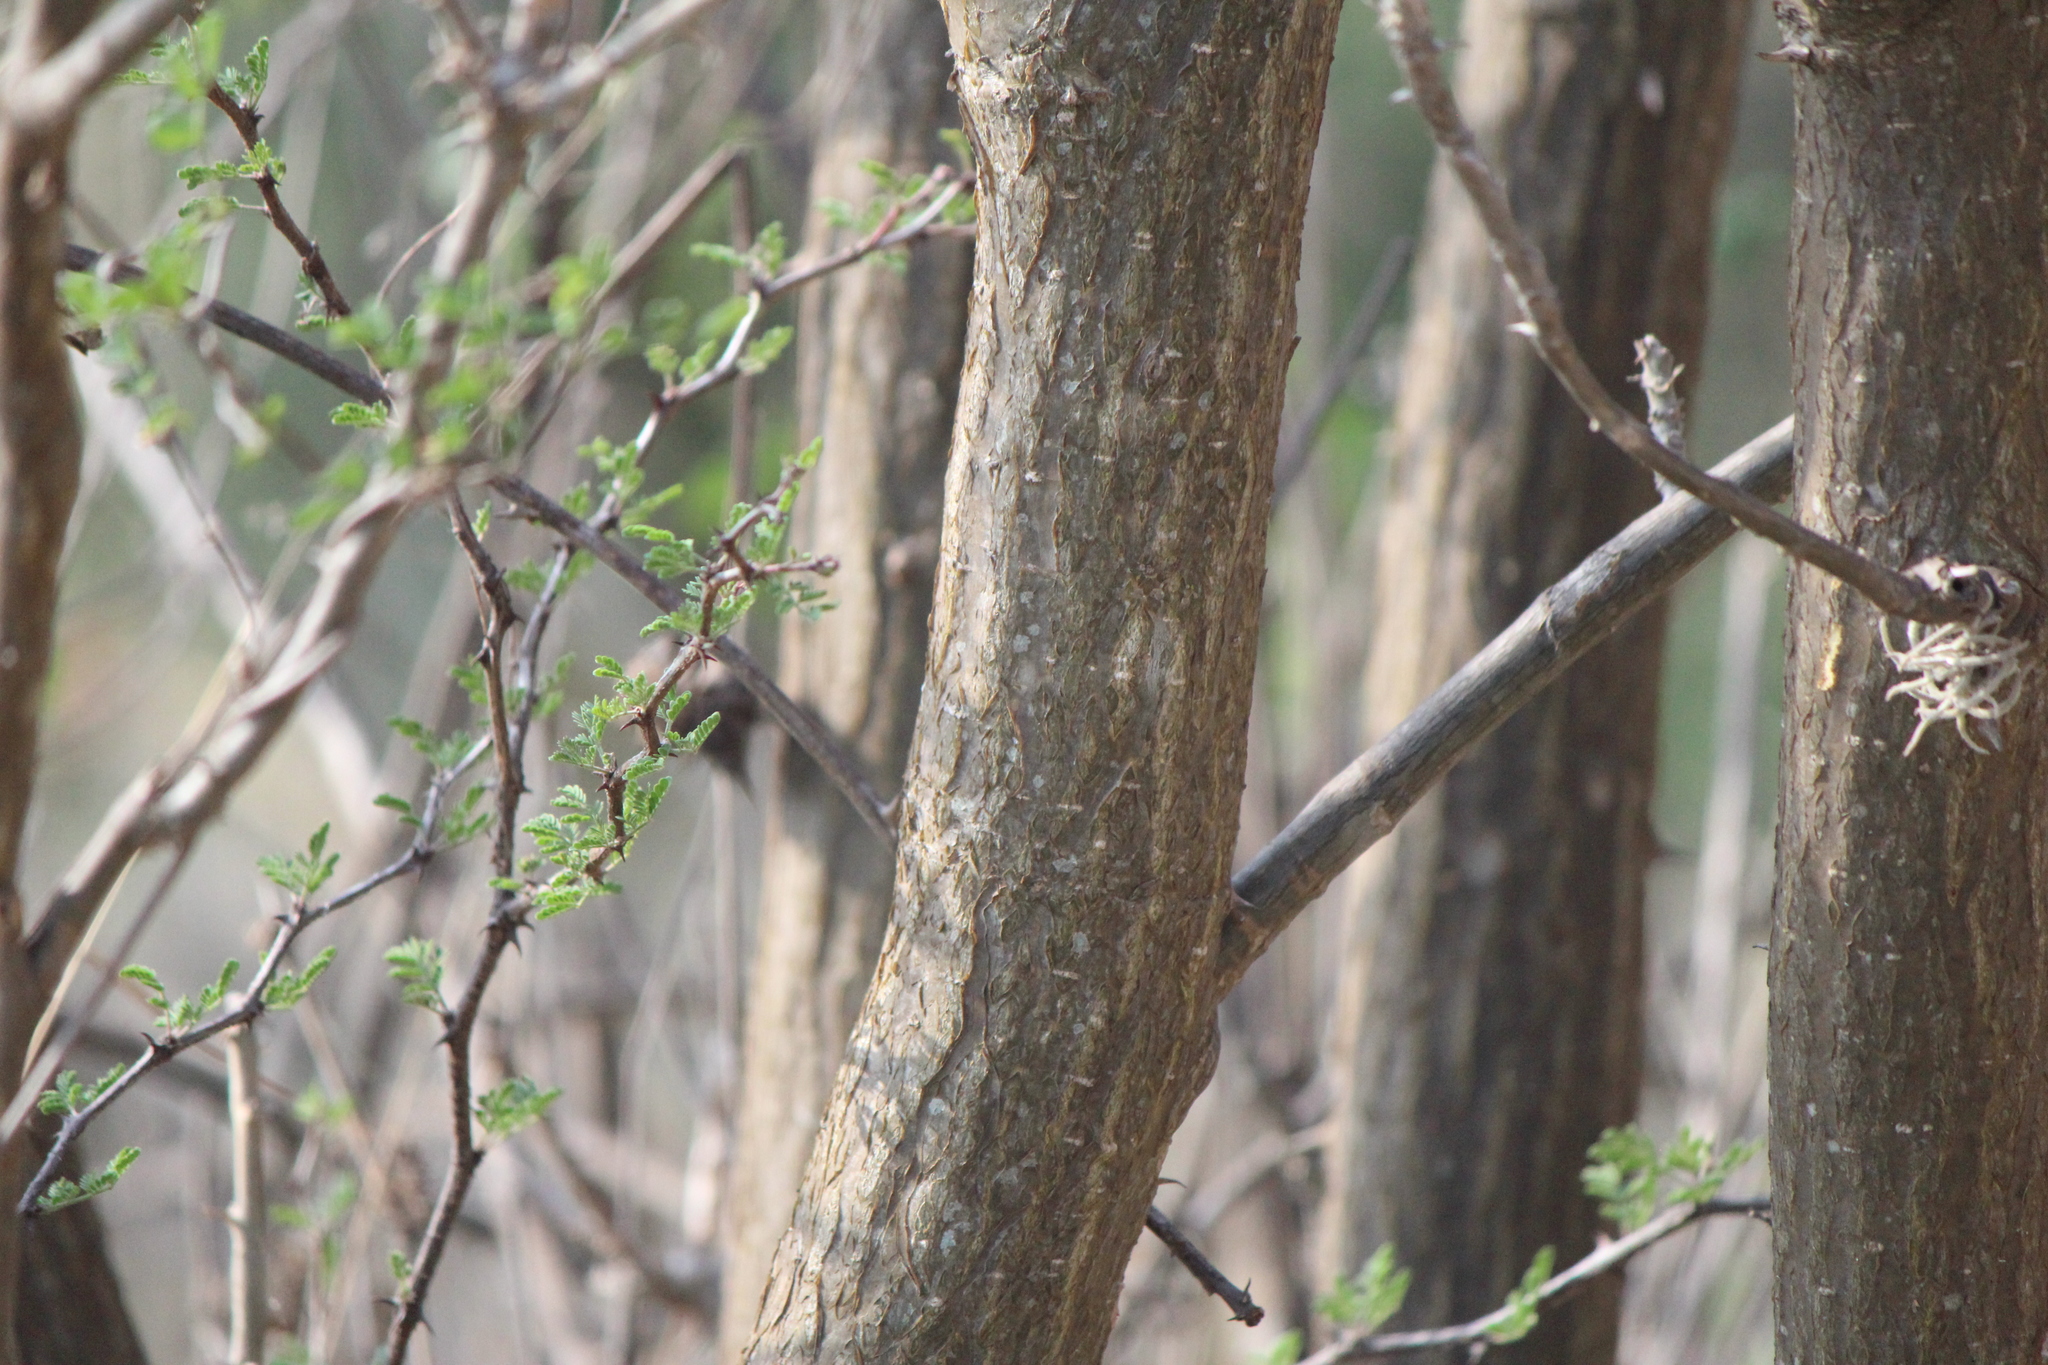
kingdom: Plantae
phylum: Tracheophyta
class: Magnoliopsida
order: Fabales
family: Fabaceae
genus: Erythrina
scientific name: Erythrina americana
